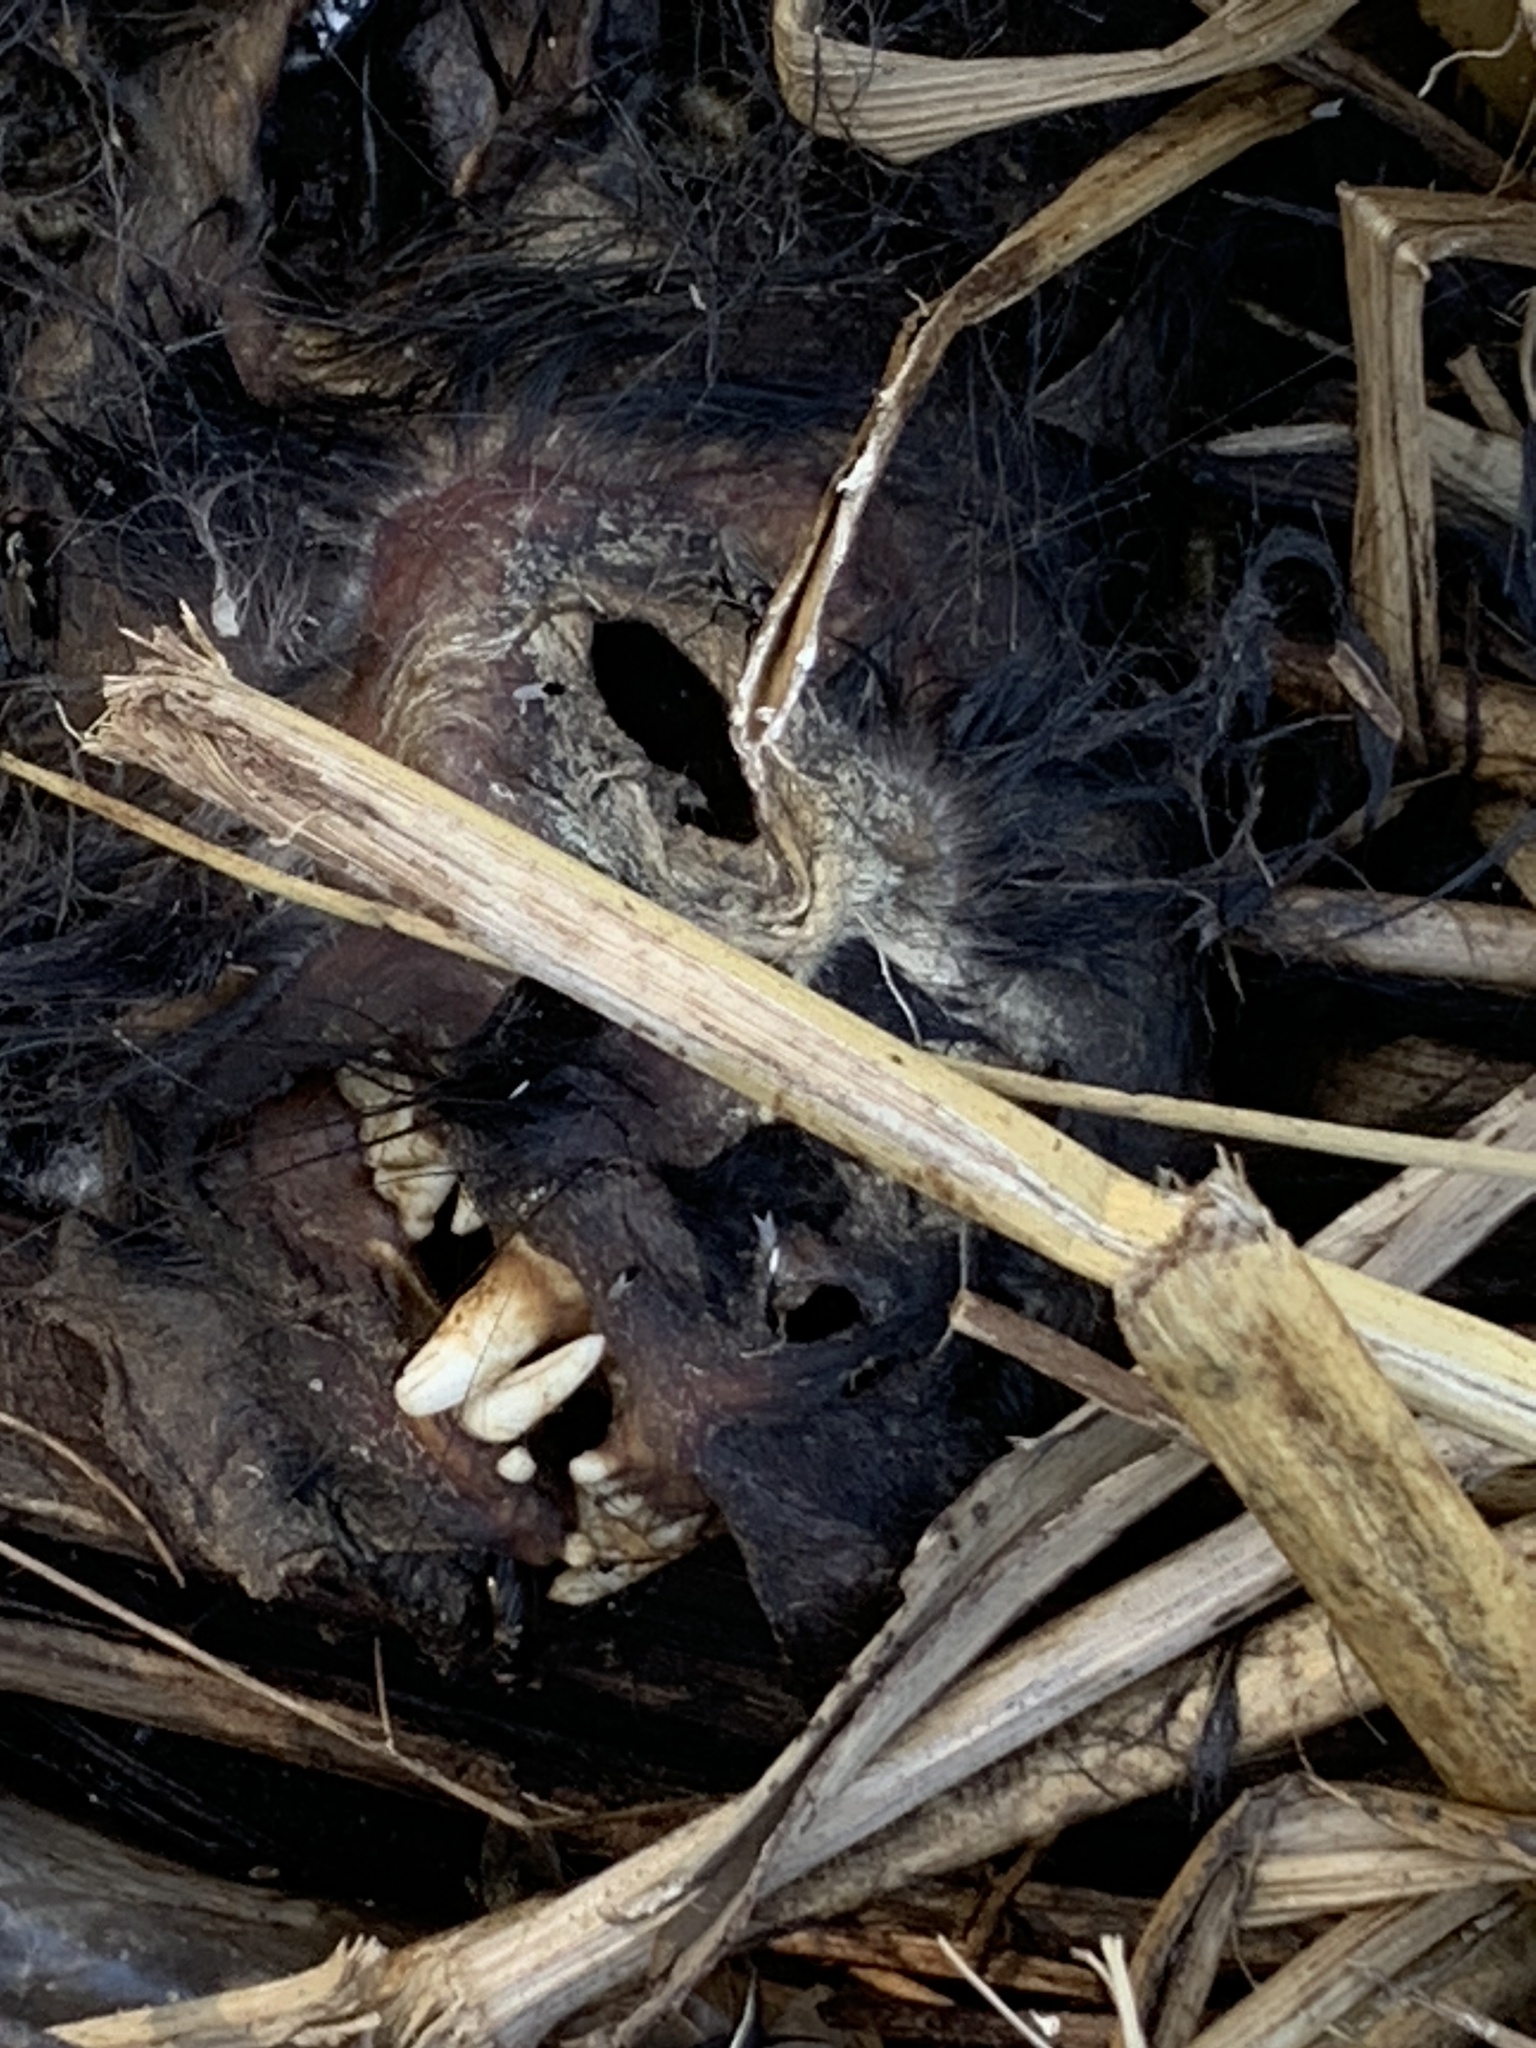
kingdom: Animalia
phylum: Chordata
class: Mammalia
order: Carnivora
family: Felidae
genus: Felis
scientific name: Felis catus
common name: Domestic cat
